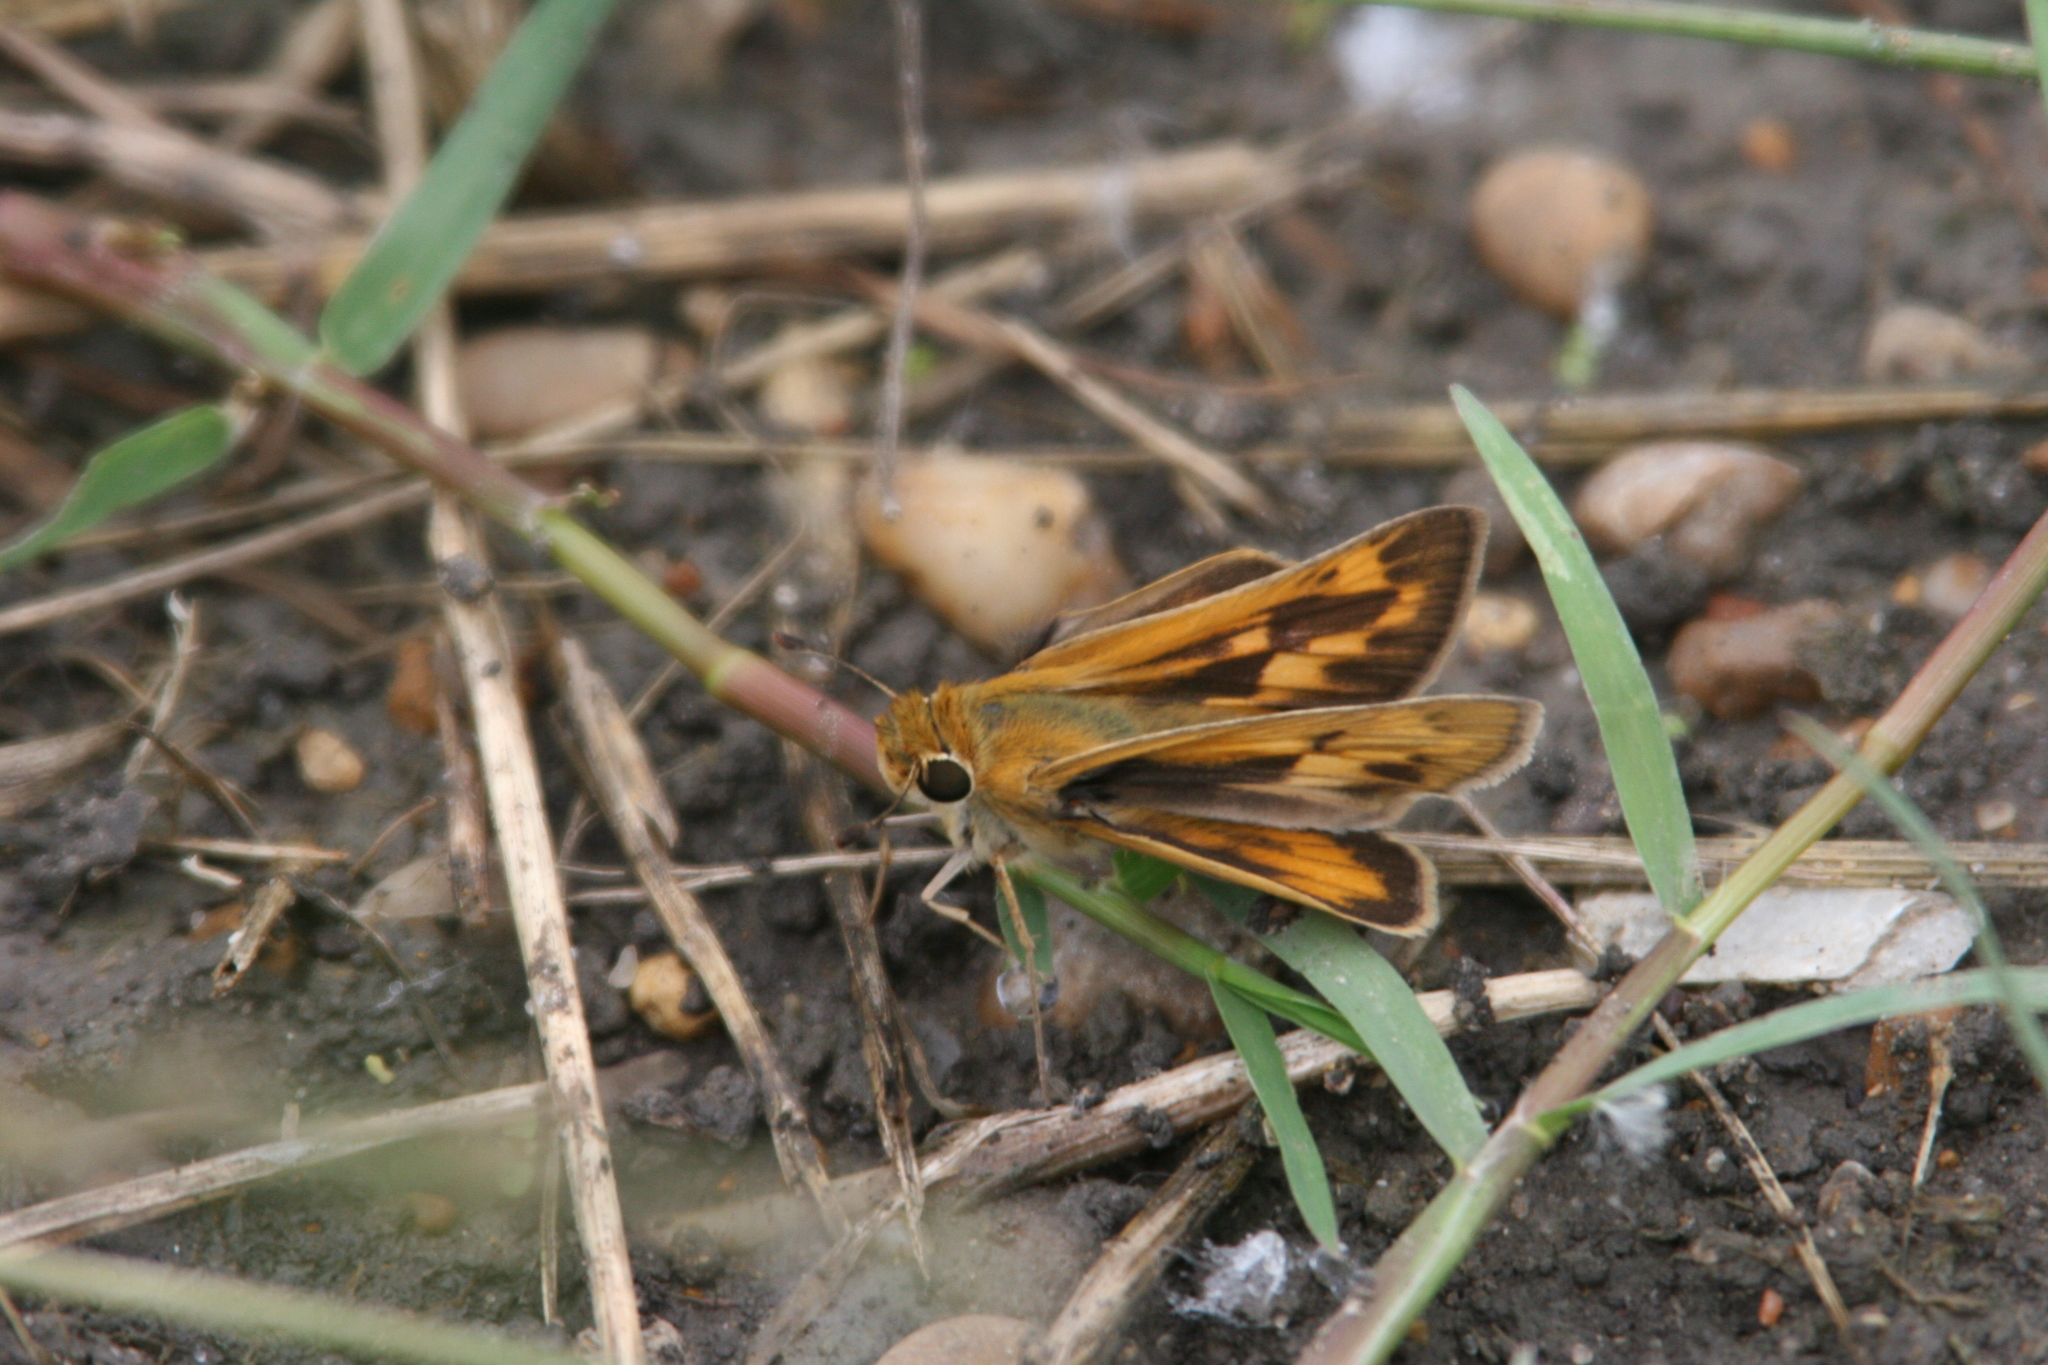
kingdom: Animalia
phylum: Arthropoda
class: Insecta
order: Lepidoptera
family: Hesperiidae
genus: Hylephila
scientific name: Hylephila phyleus
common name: Fiery skipper
